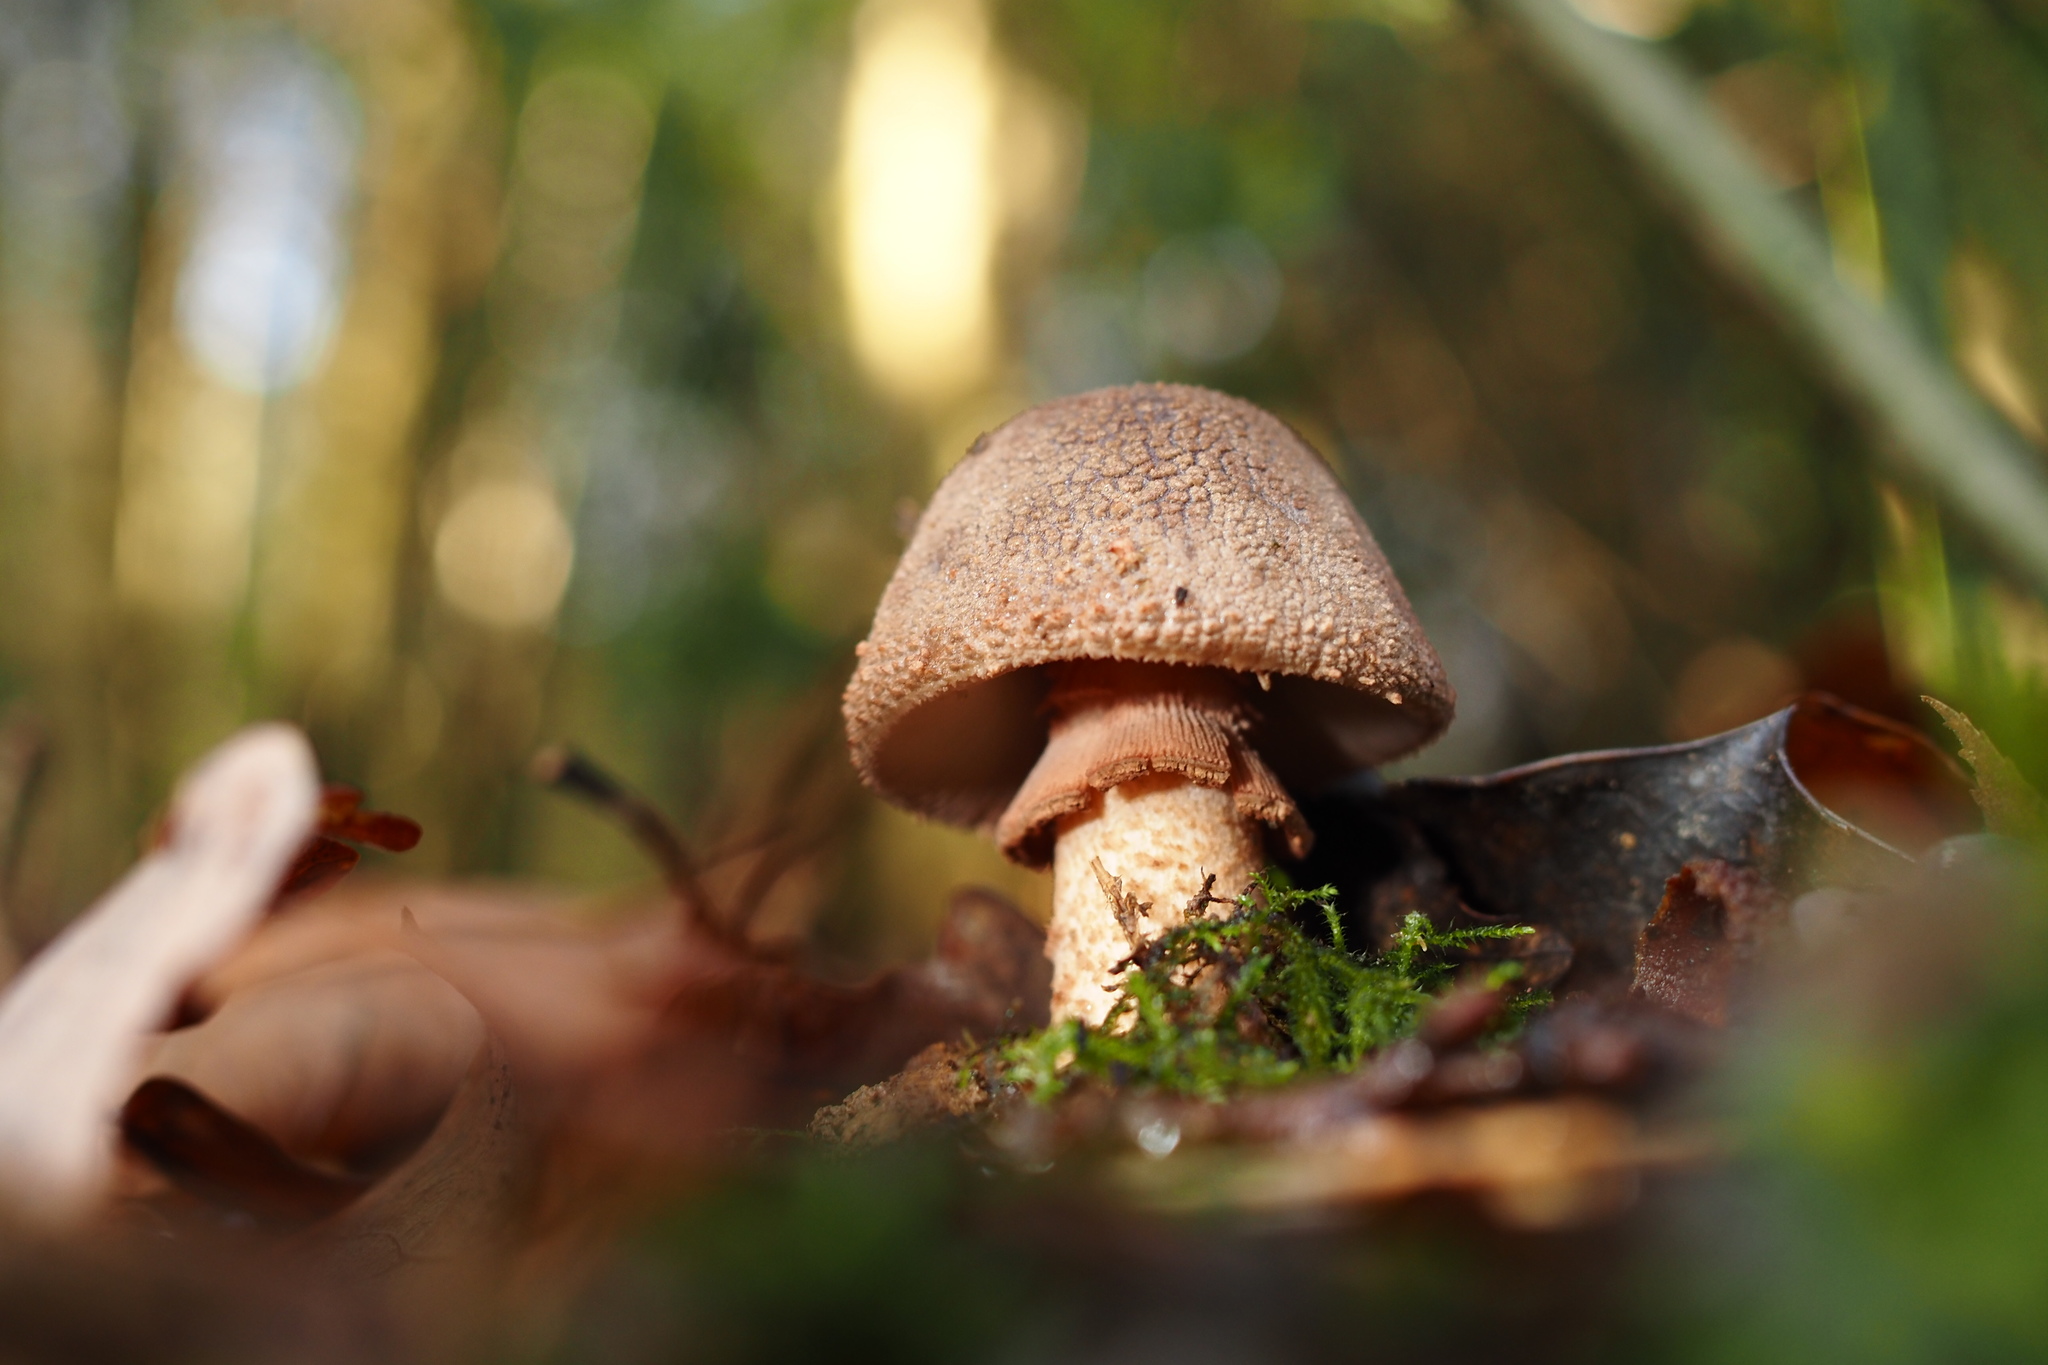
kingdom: Fungi
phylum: Basidiomycota
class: Agaricomycetes
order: Agaricales
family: Amanitaceae
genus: Amanita
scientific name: Amanita rubescens
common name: Blusher
